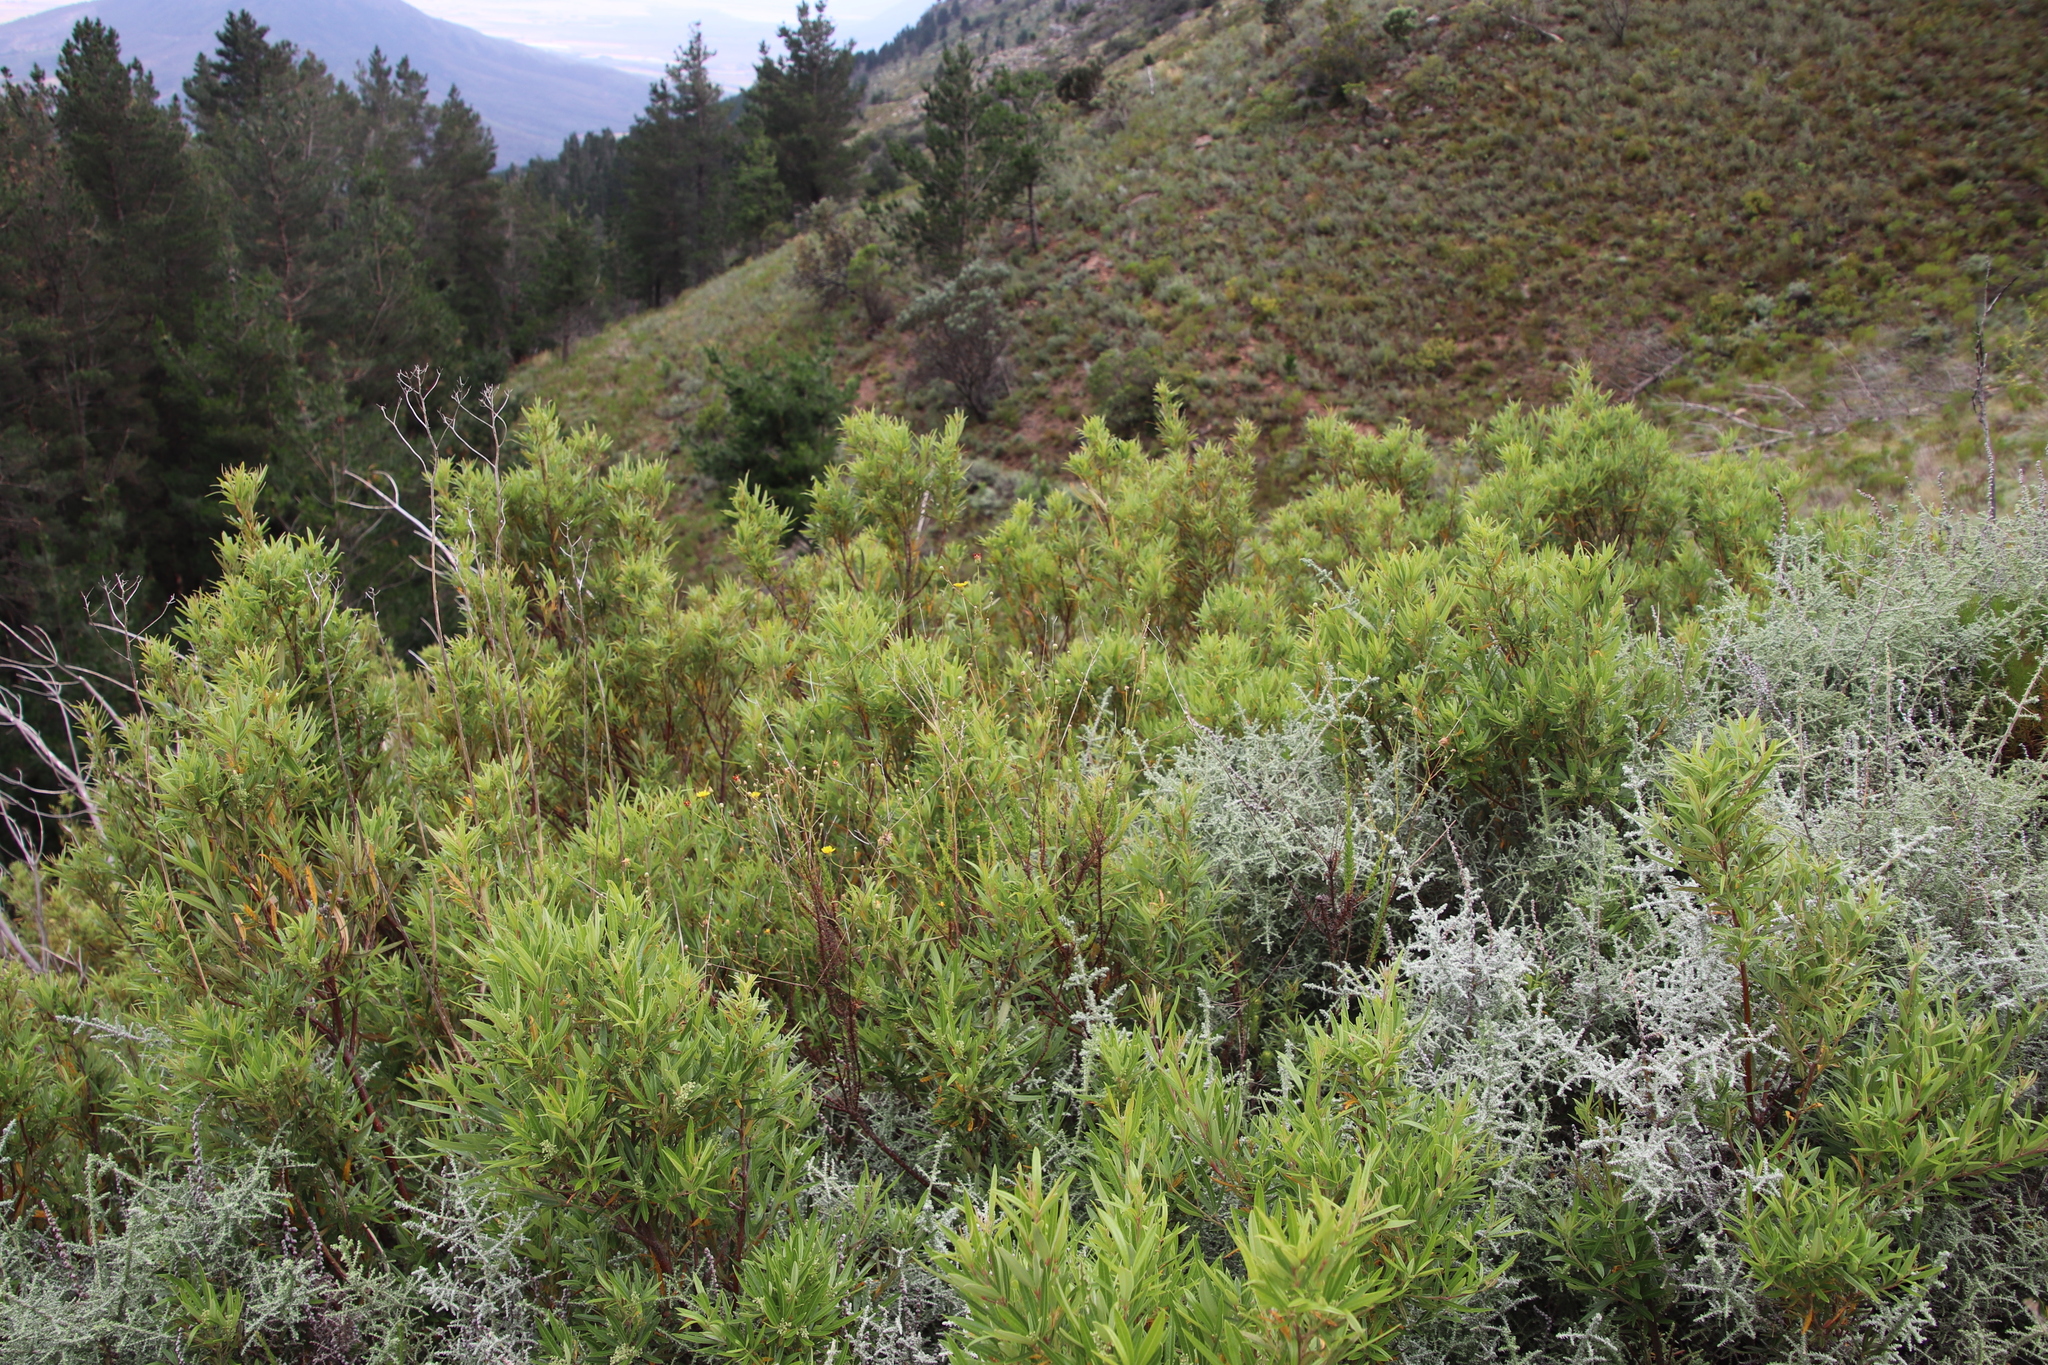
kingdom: Plantae
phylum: Tracheophyta
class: Magnoliopsida
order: Sapindales
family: Anacardiaceae
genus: Searsia
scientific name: Searsia angustifolia
